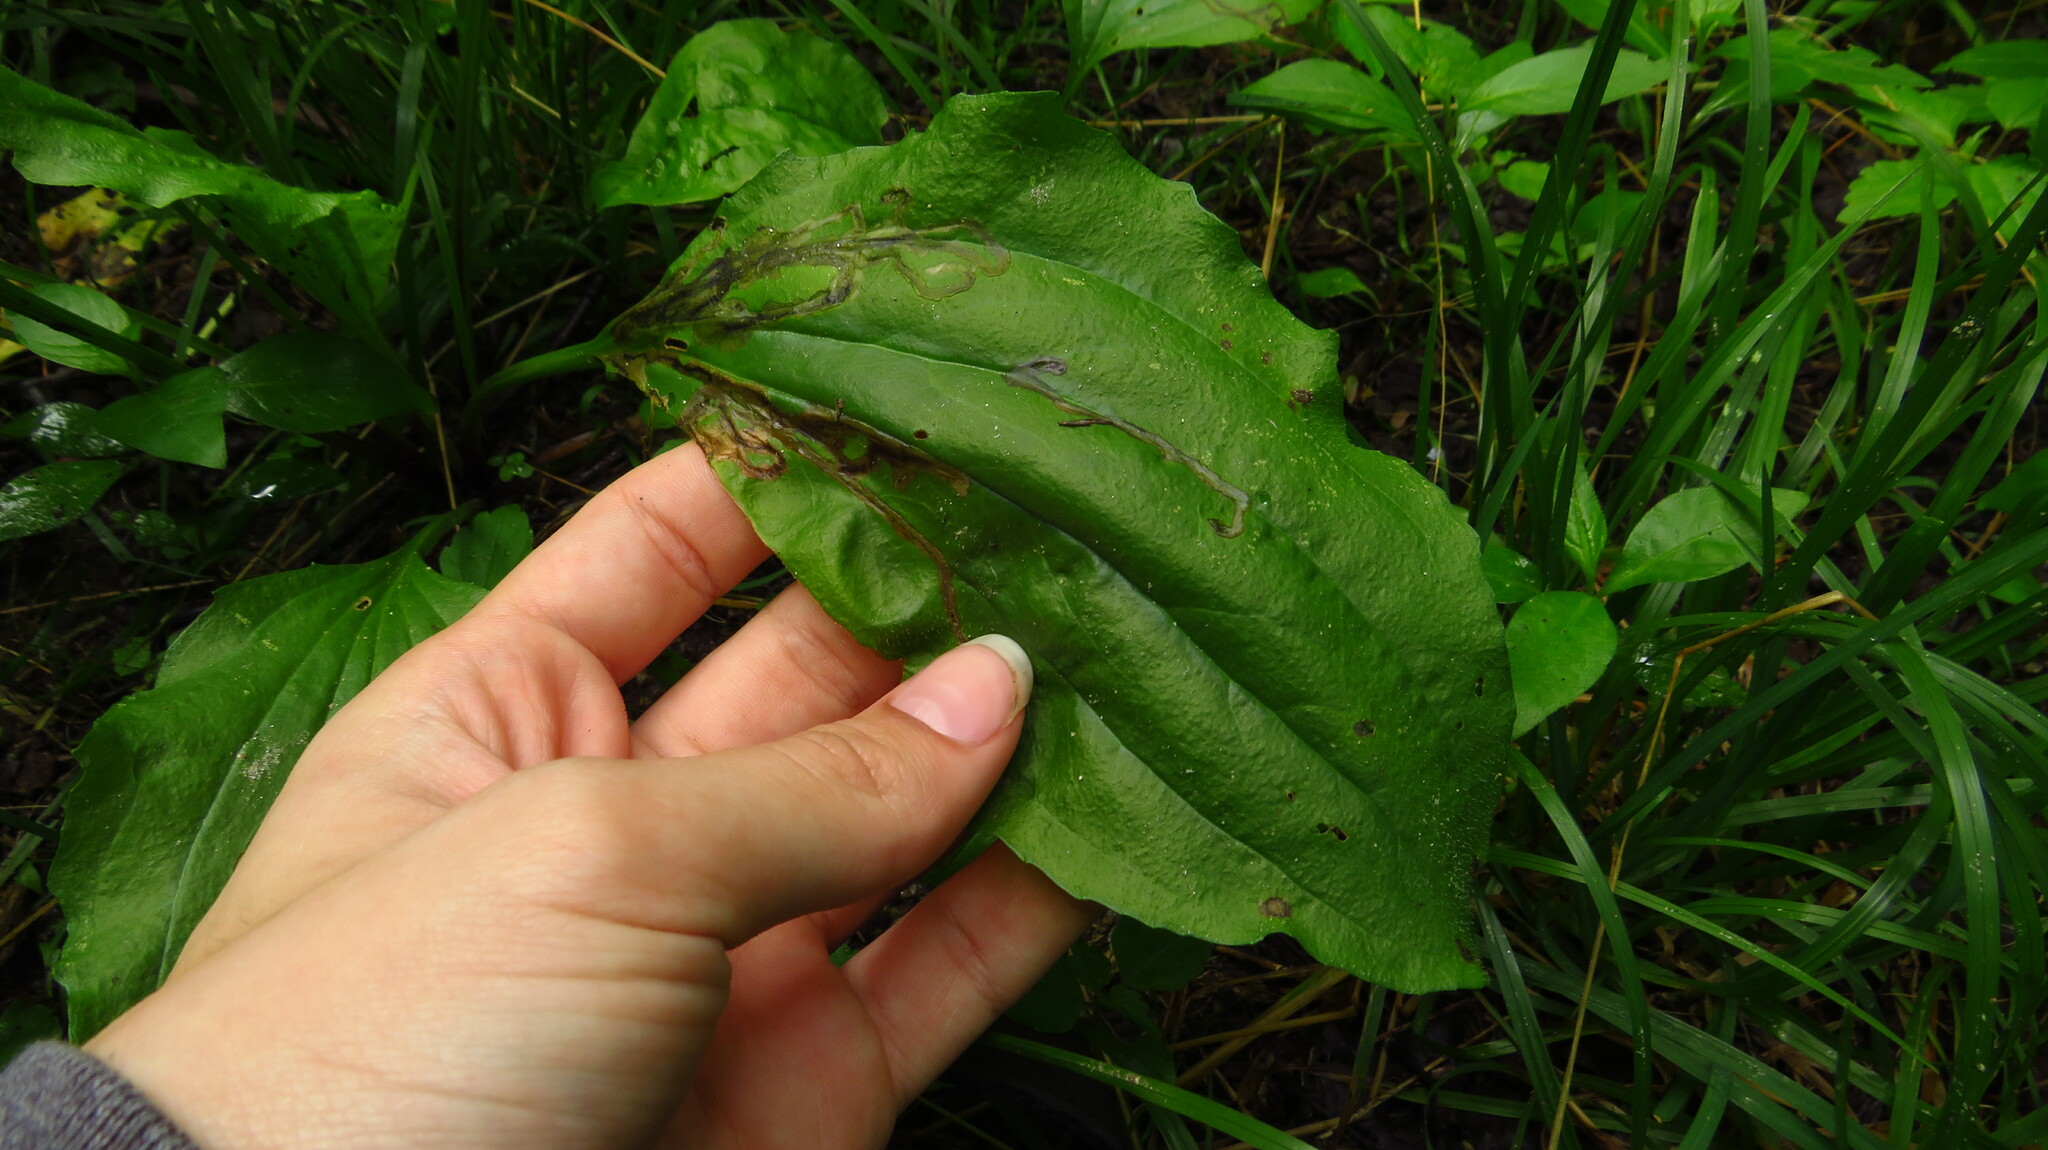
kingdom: Animalia
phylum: Arthropoda
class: Insecta
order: Coleoptera
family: Chrysomelidae
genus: Dibolia
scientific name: Dibolia borealis
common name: Northern plantain flea beetle
